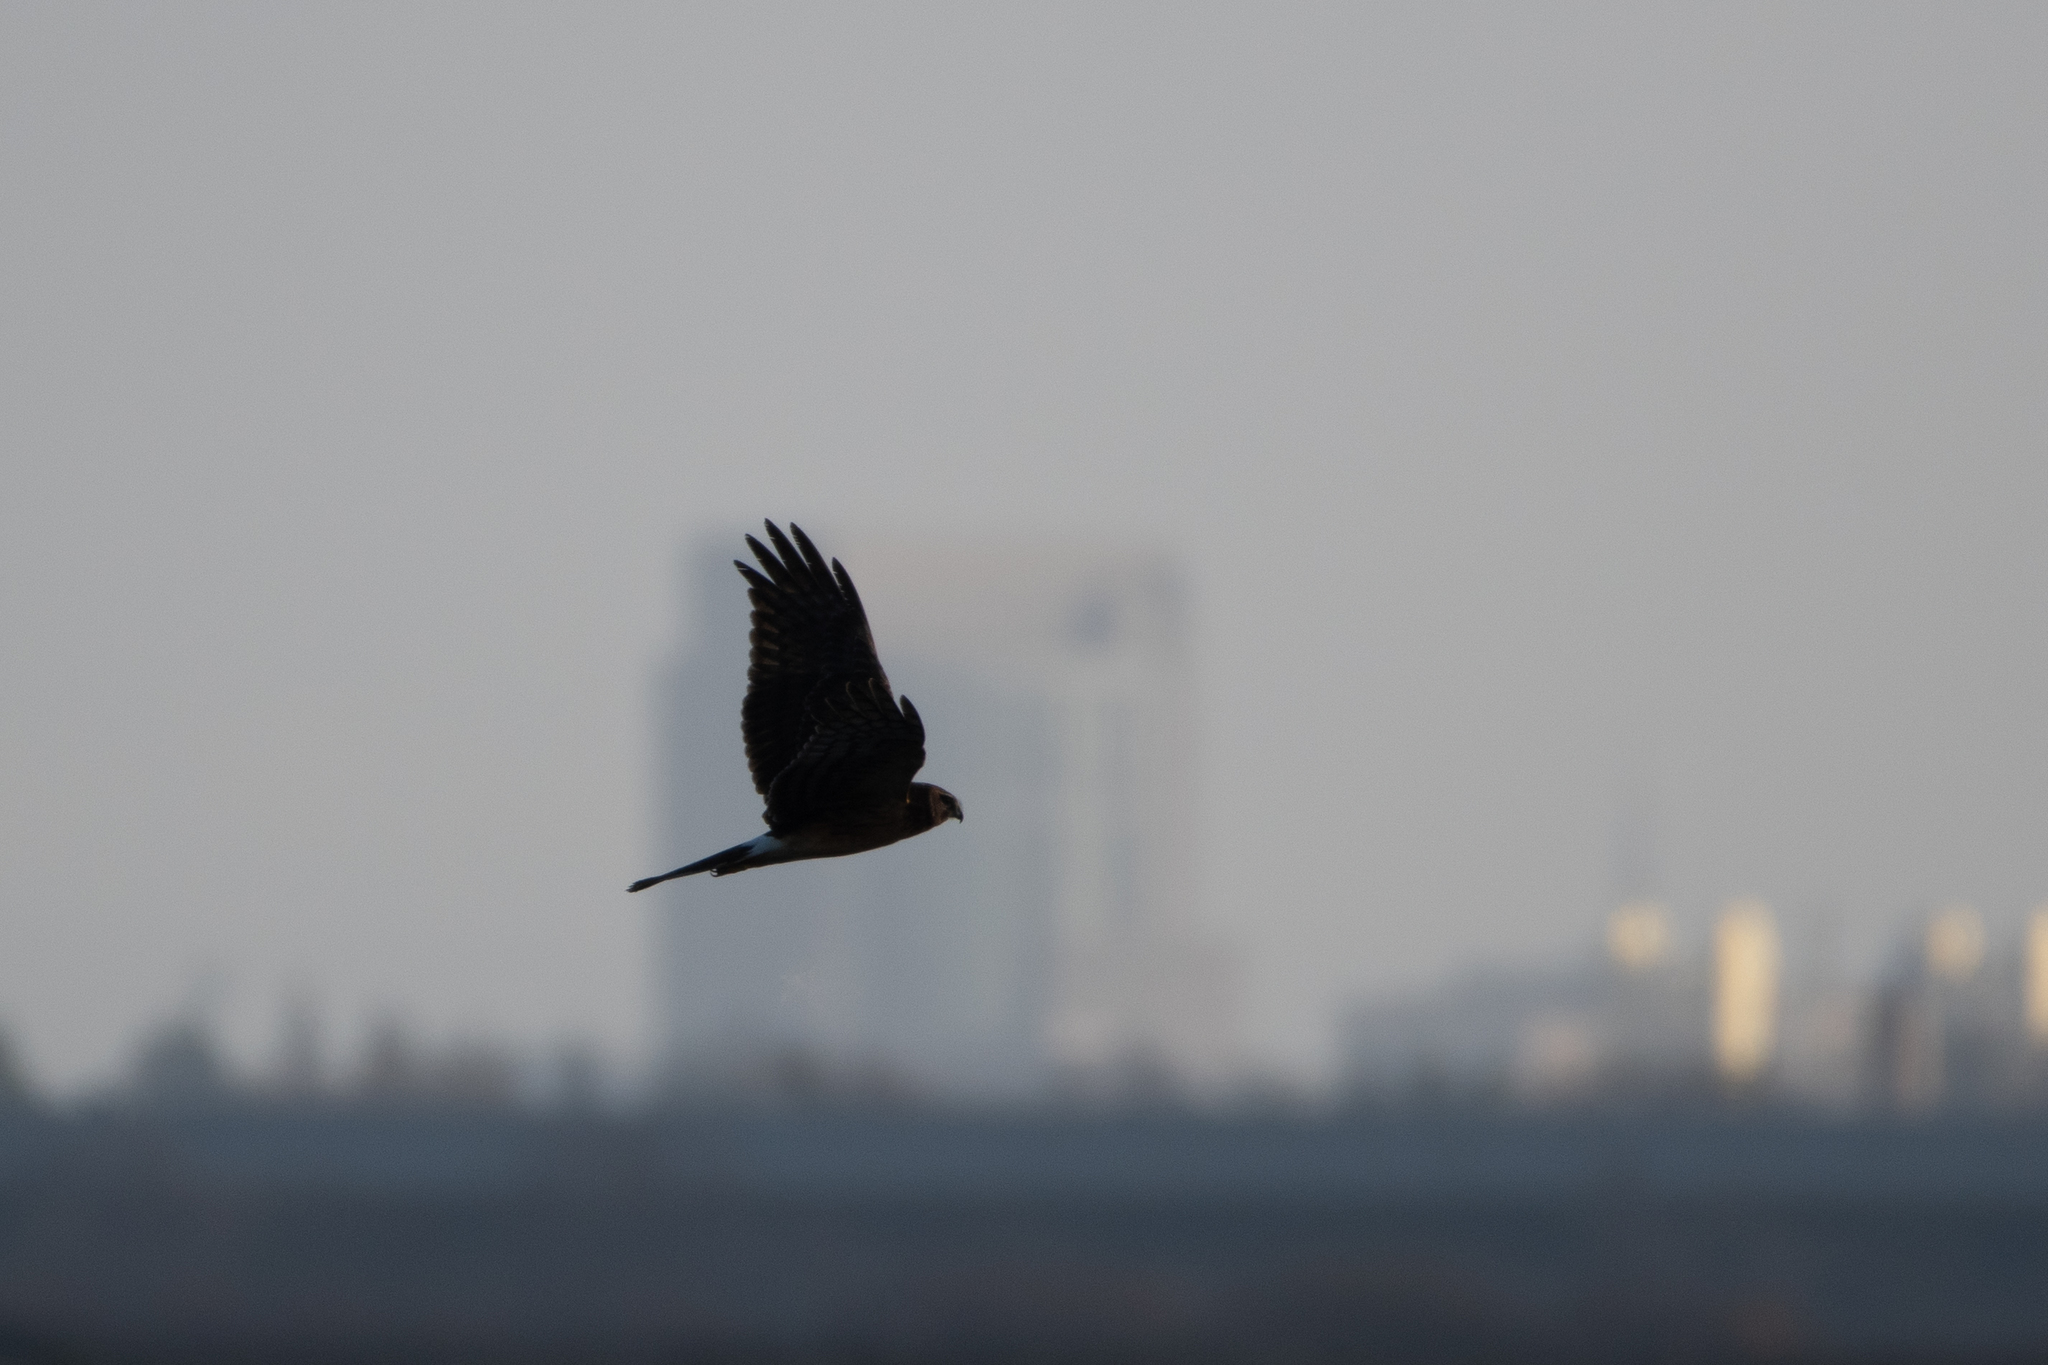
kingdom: Animalia
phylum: Chordata
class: Aves
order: Accipitriformes
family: Accipitridae
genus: Circus
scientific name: Circus cyaneus
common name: Hen harrier
